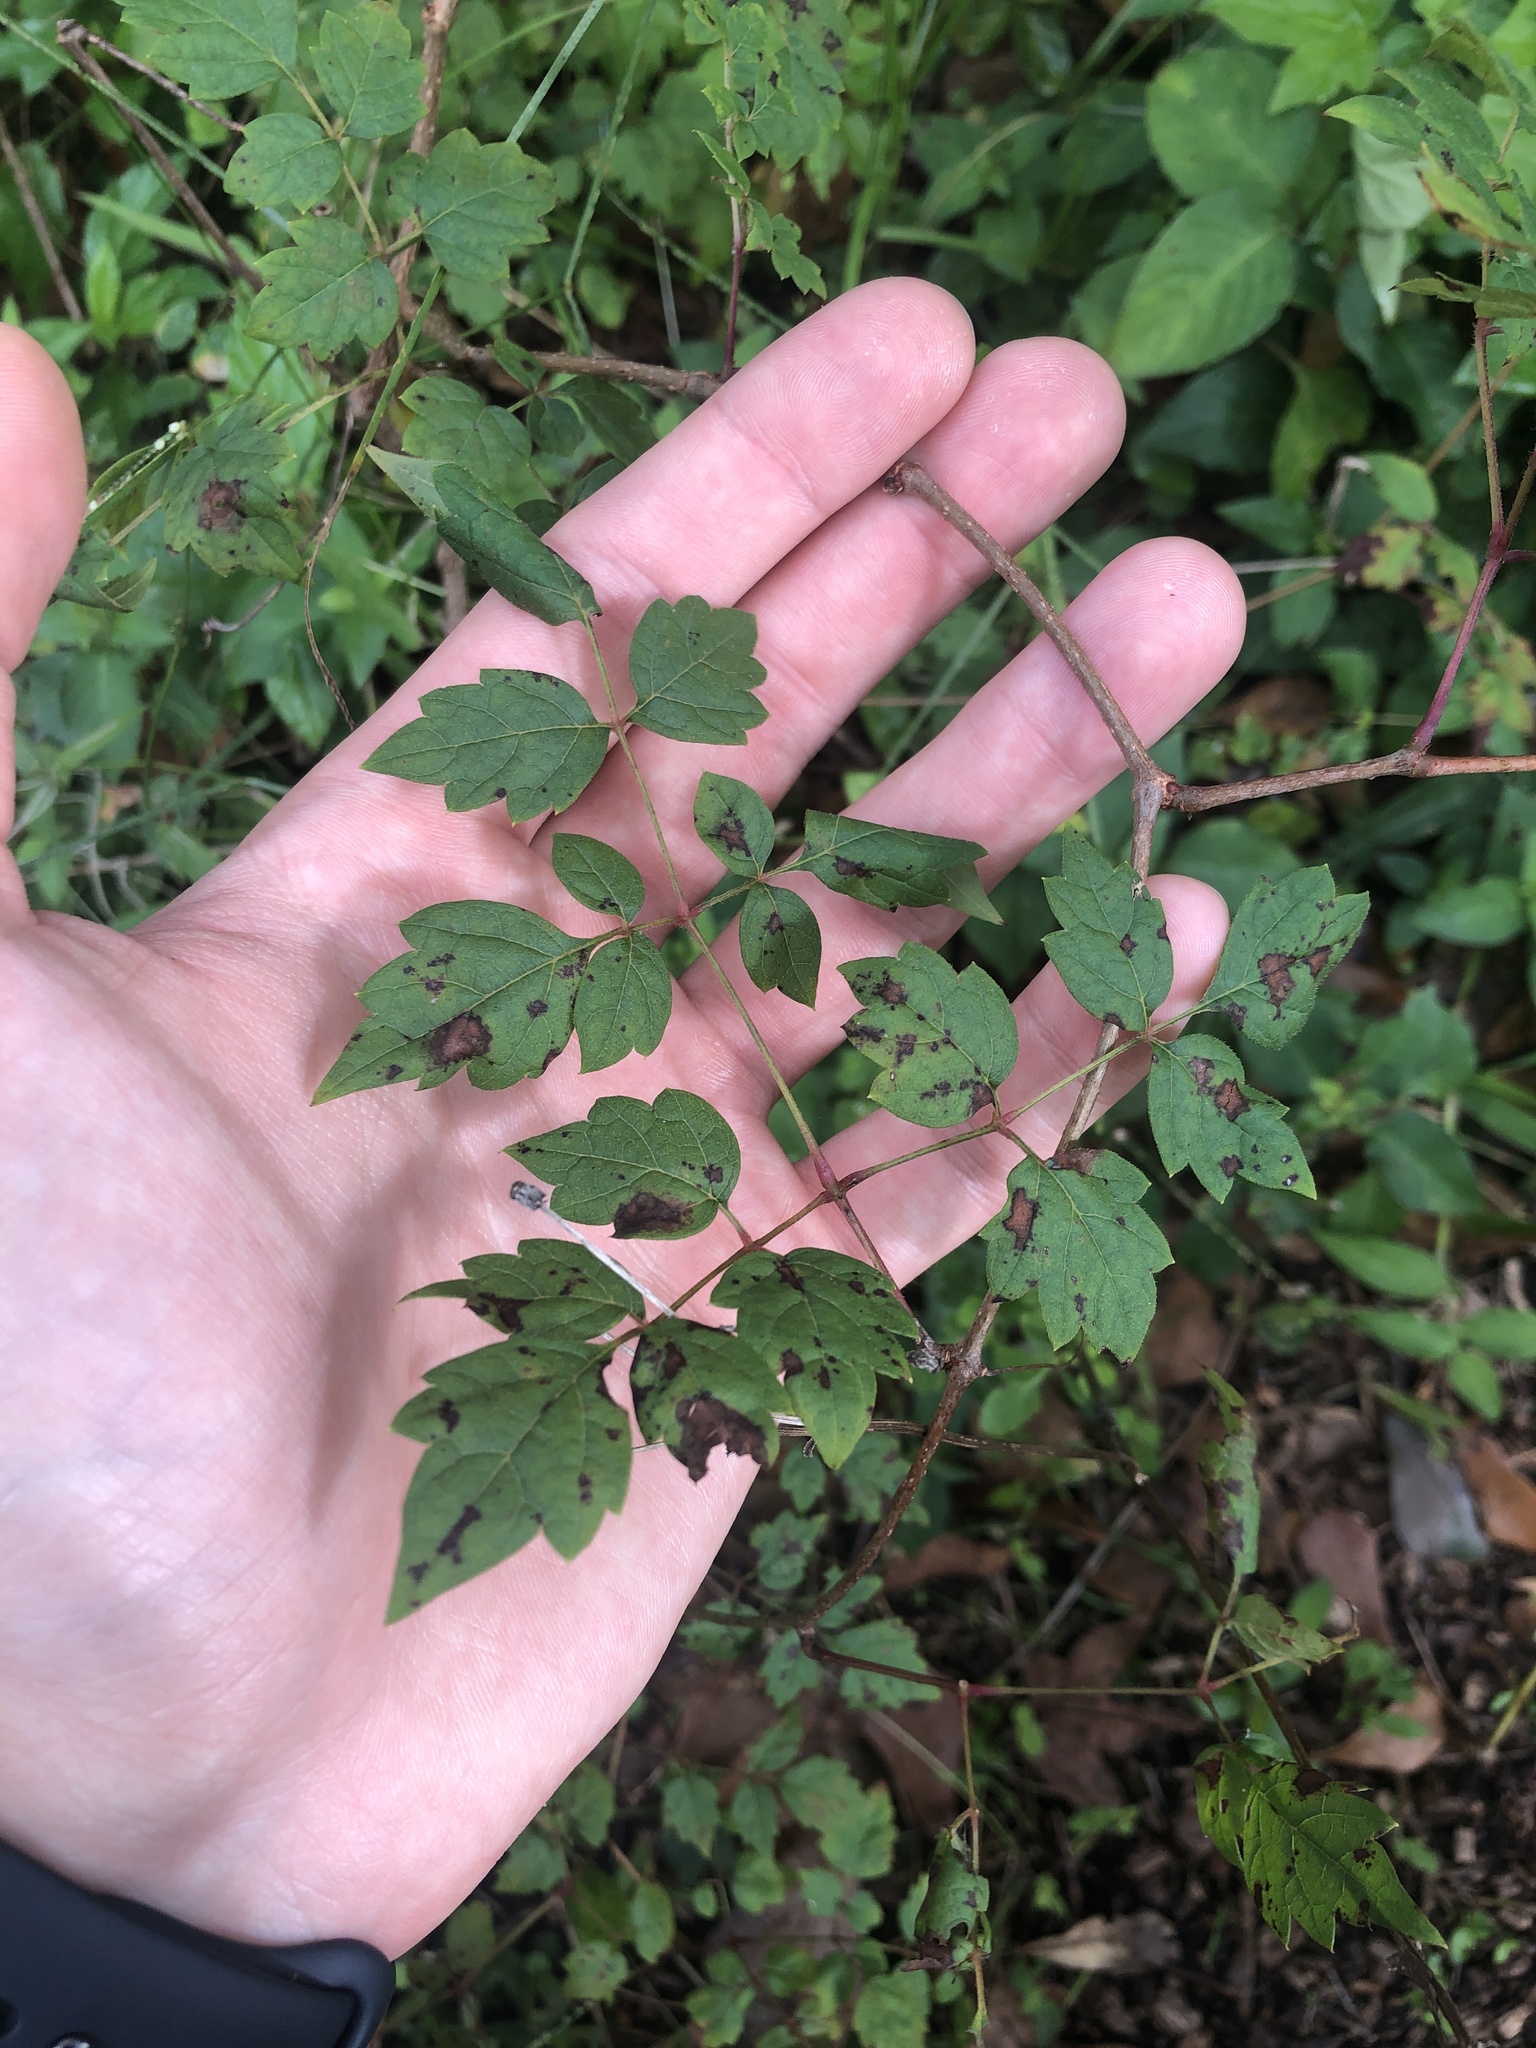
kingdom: Plantae
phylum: Tracheophyta
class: Magnoliopsida
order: Vitales
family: Vitaceae
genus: Nekemias
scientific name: Nekemias arborea
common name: Peppervine
